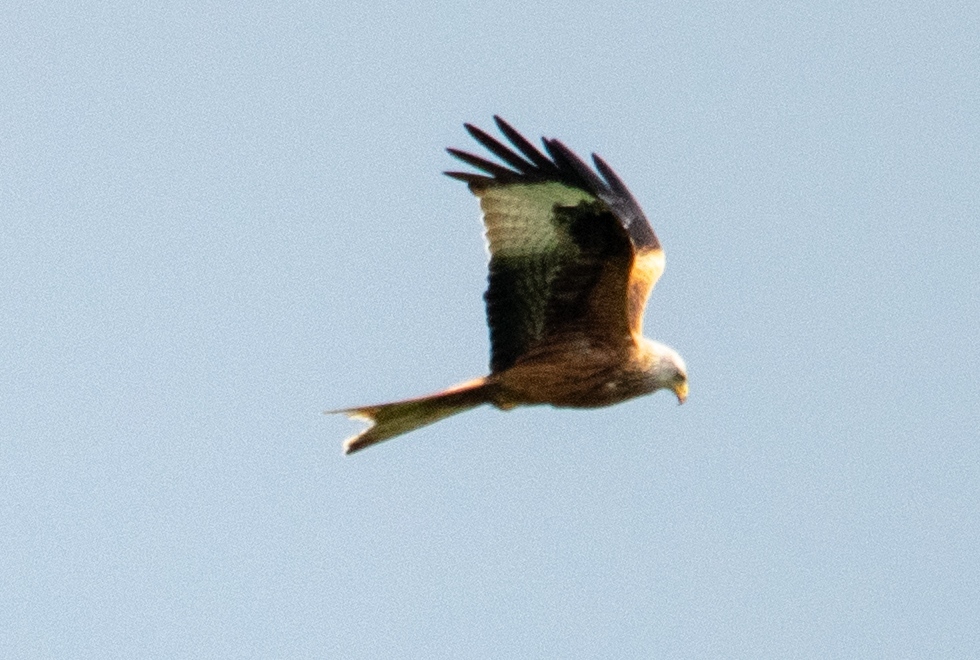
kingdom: Animalia
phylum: Chordata
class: Aves
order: Accipitriformes
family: Accipitridae
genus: Milvus
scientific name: Milvus milvus
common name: Red kite
